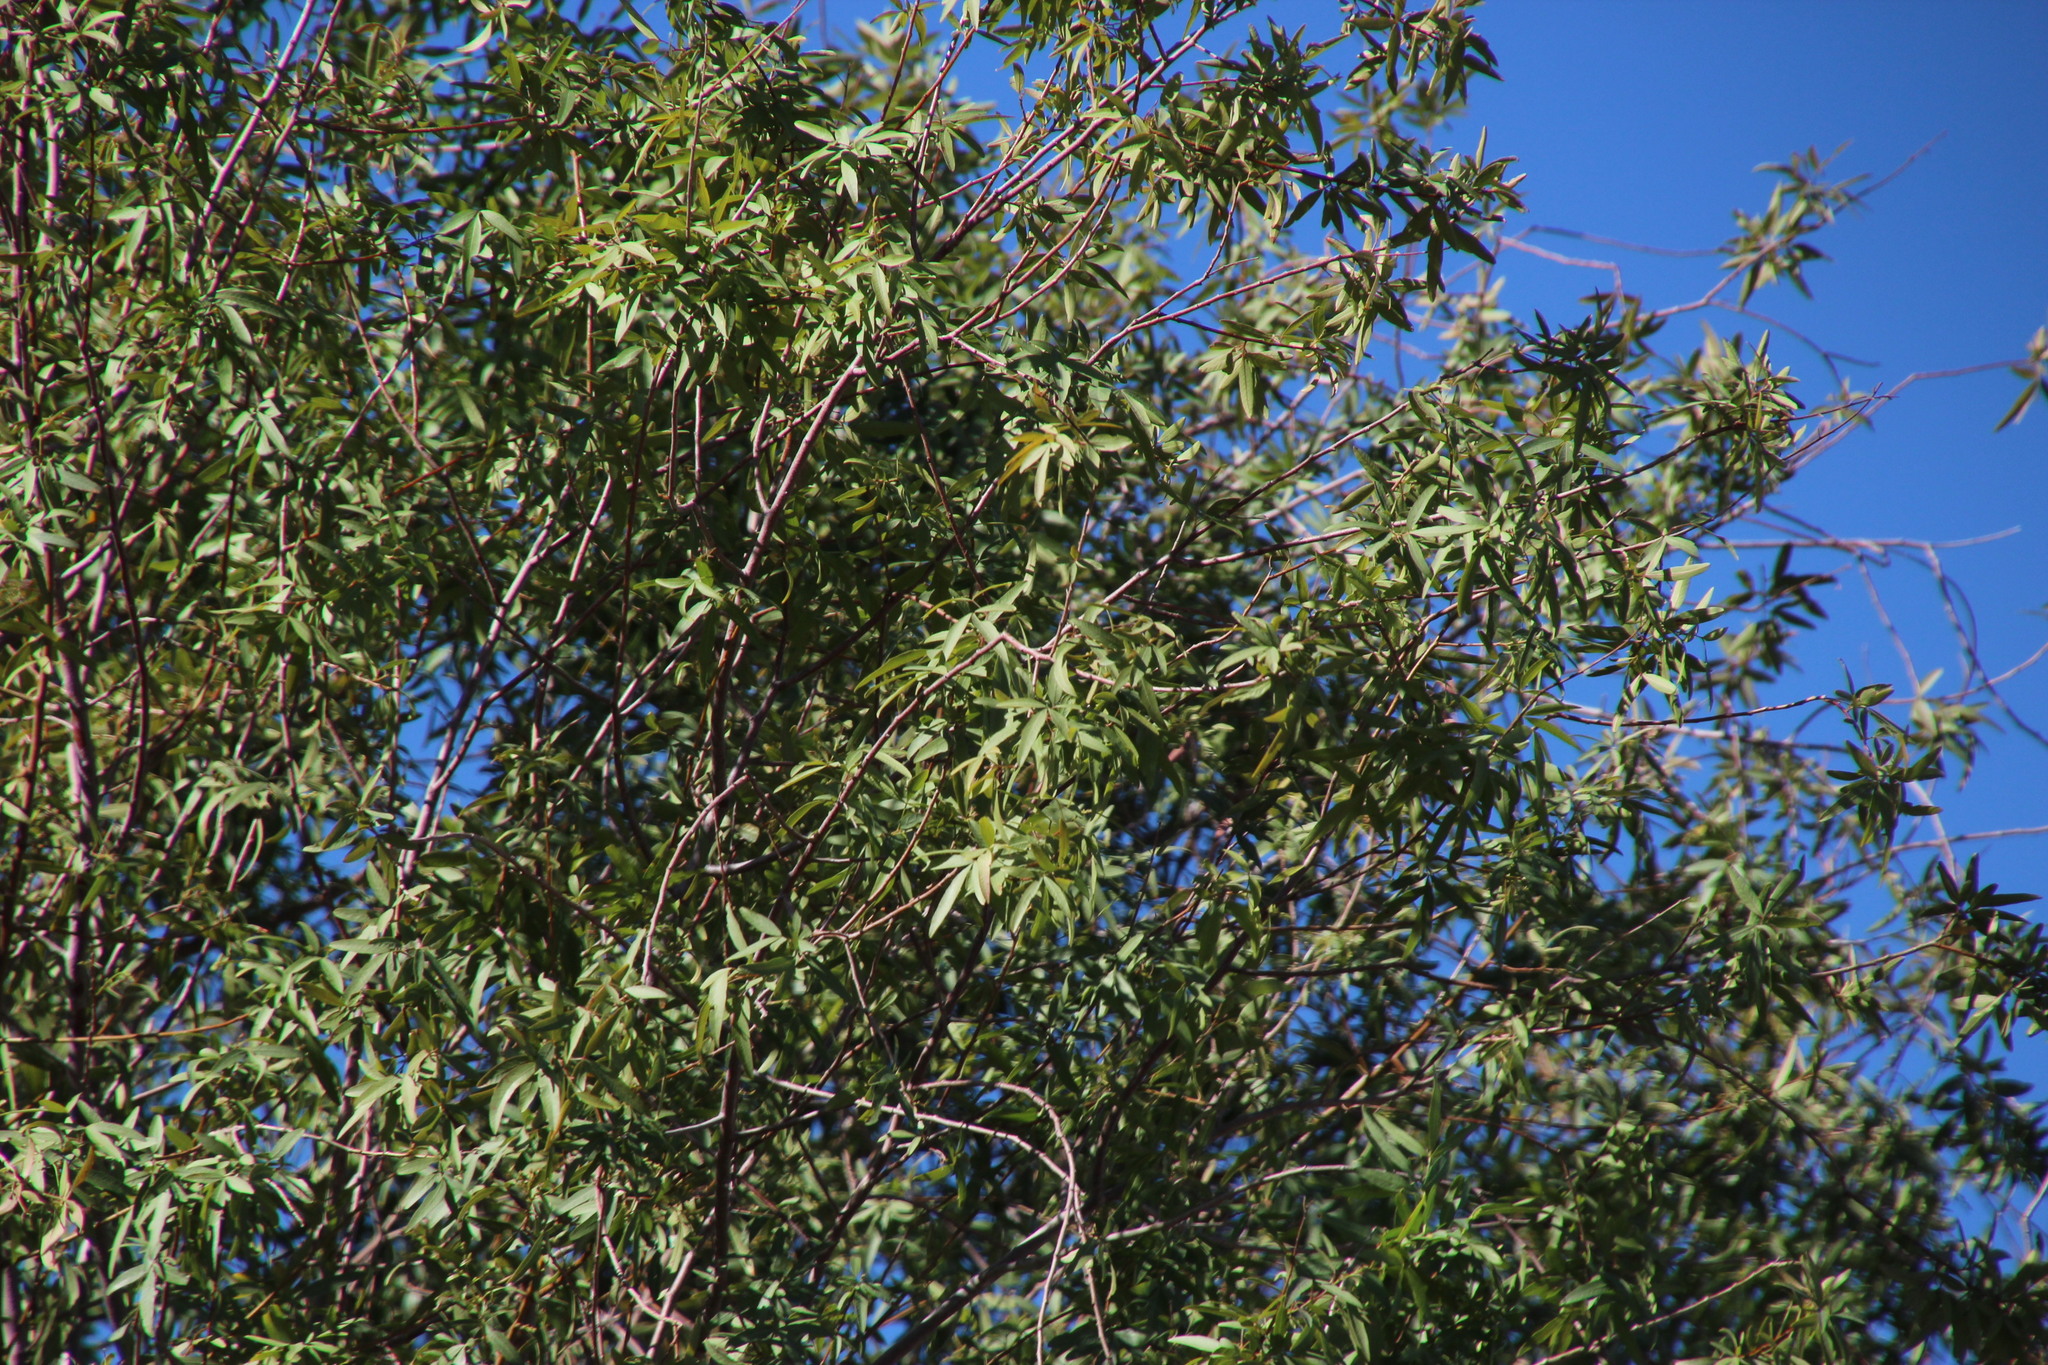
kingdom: Plantae
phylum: Tracheophyta
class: Magnoliopsida
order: Sapindales
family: Anacardiaceae
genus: Searsia
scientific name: Searsia pendulina
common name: White karee
